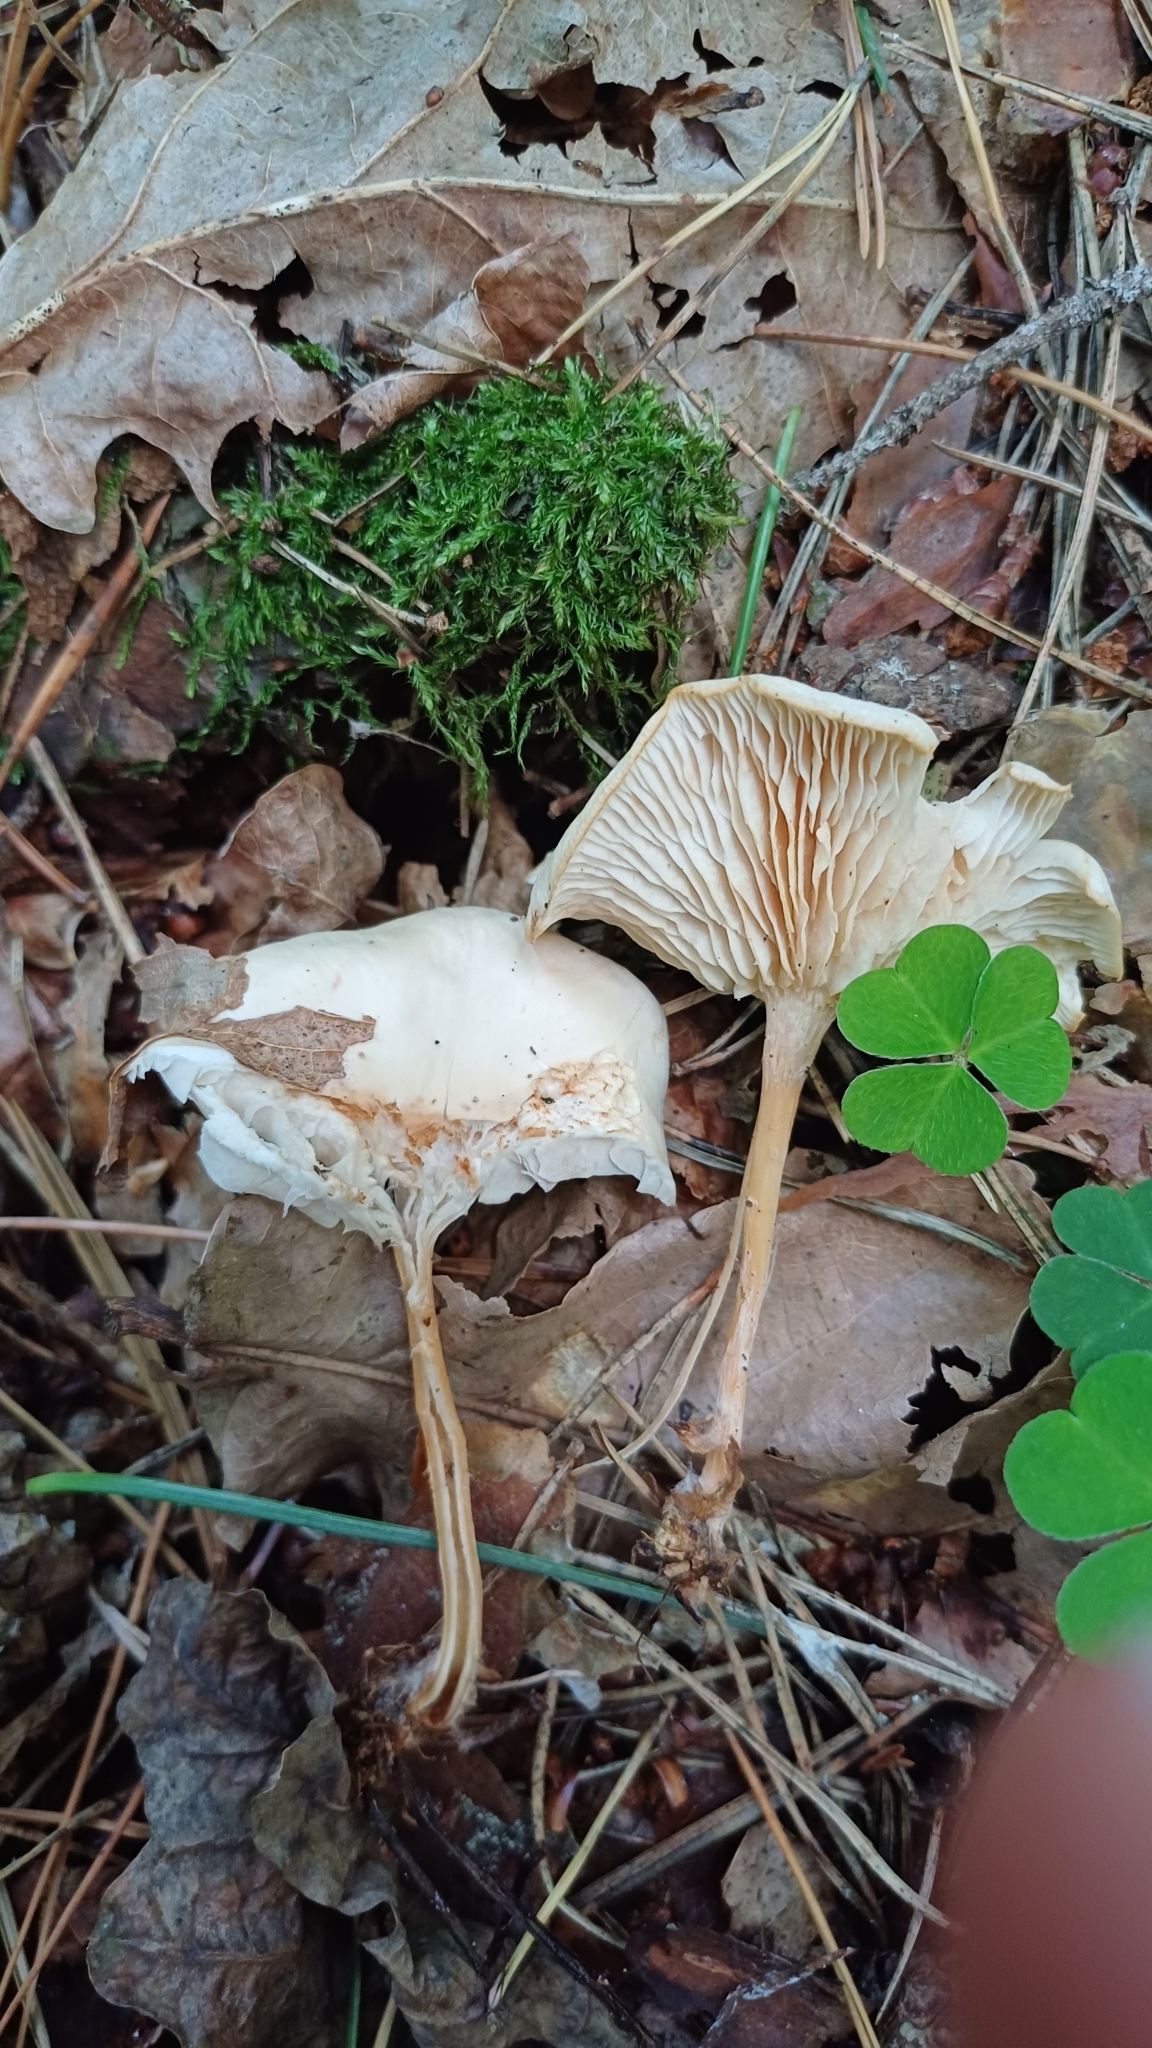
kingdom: Fungi
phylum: Basidiomycota
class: Agaricomycetes
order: Agaricales
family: Omphalotaceae
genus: Gymnopus
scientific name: Gymnopus dryophilus
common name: Penny top
